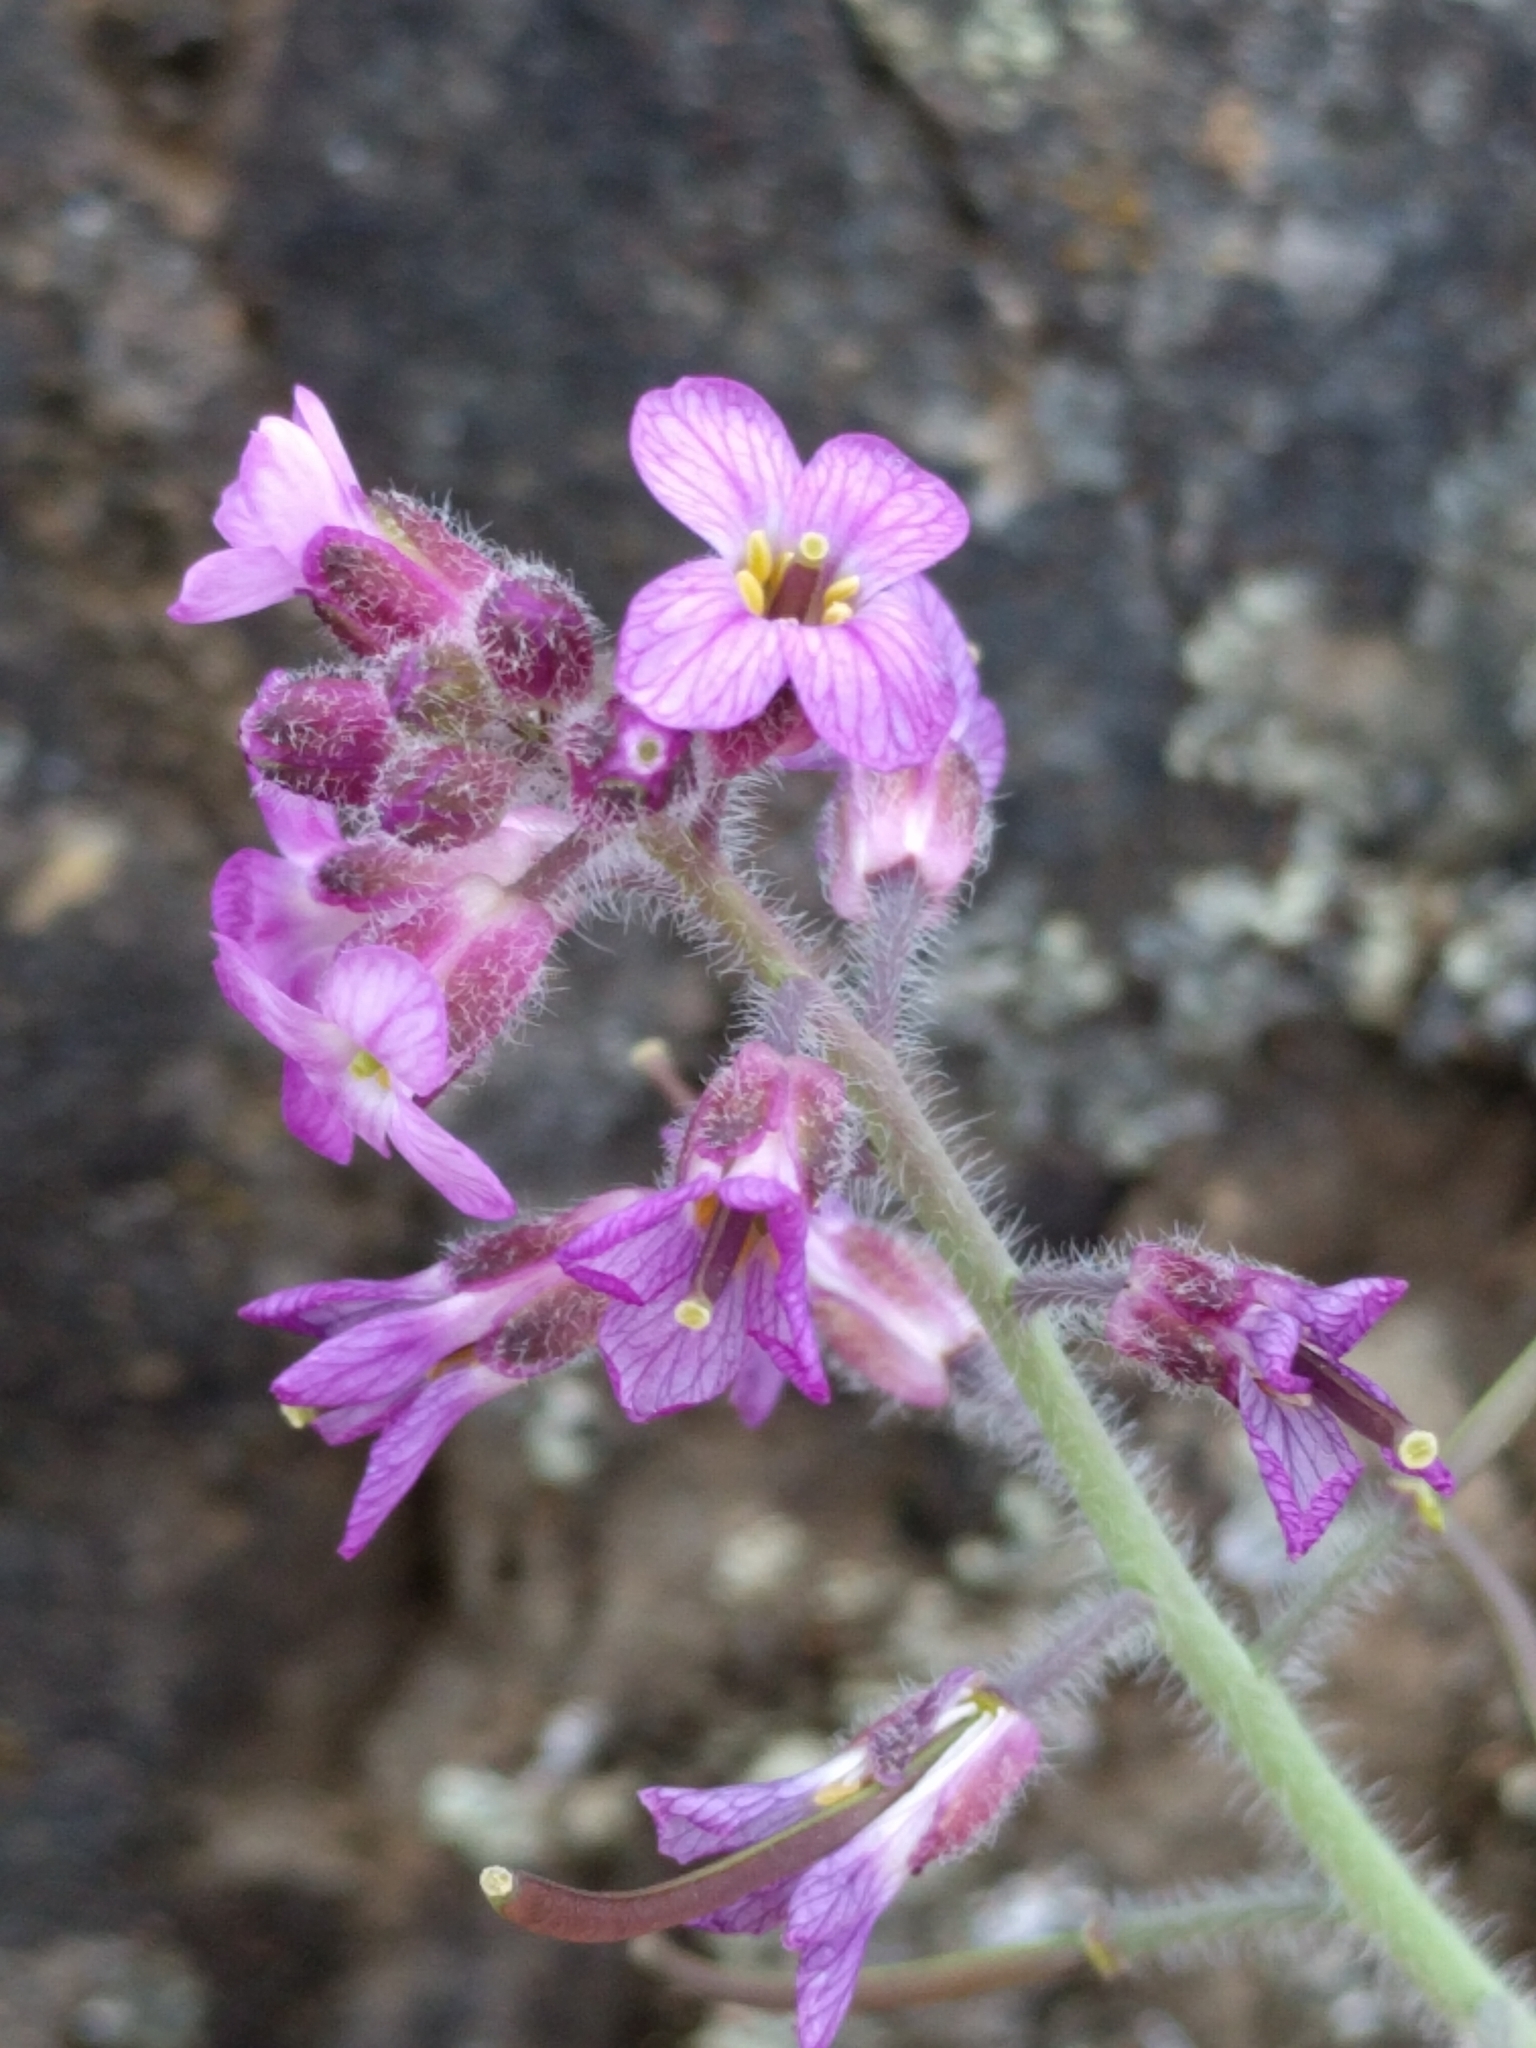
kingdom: Plantae
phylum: Tracheophyta
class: Magnoliopsida
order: Brassicales
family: Brassicaceae
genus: Boechera
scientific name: Boechera breweri
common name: Brewer's rockcress
